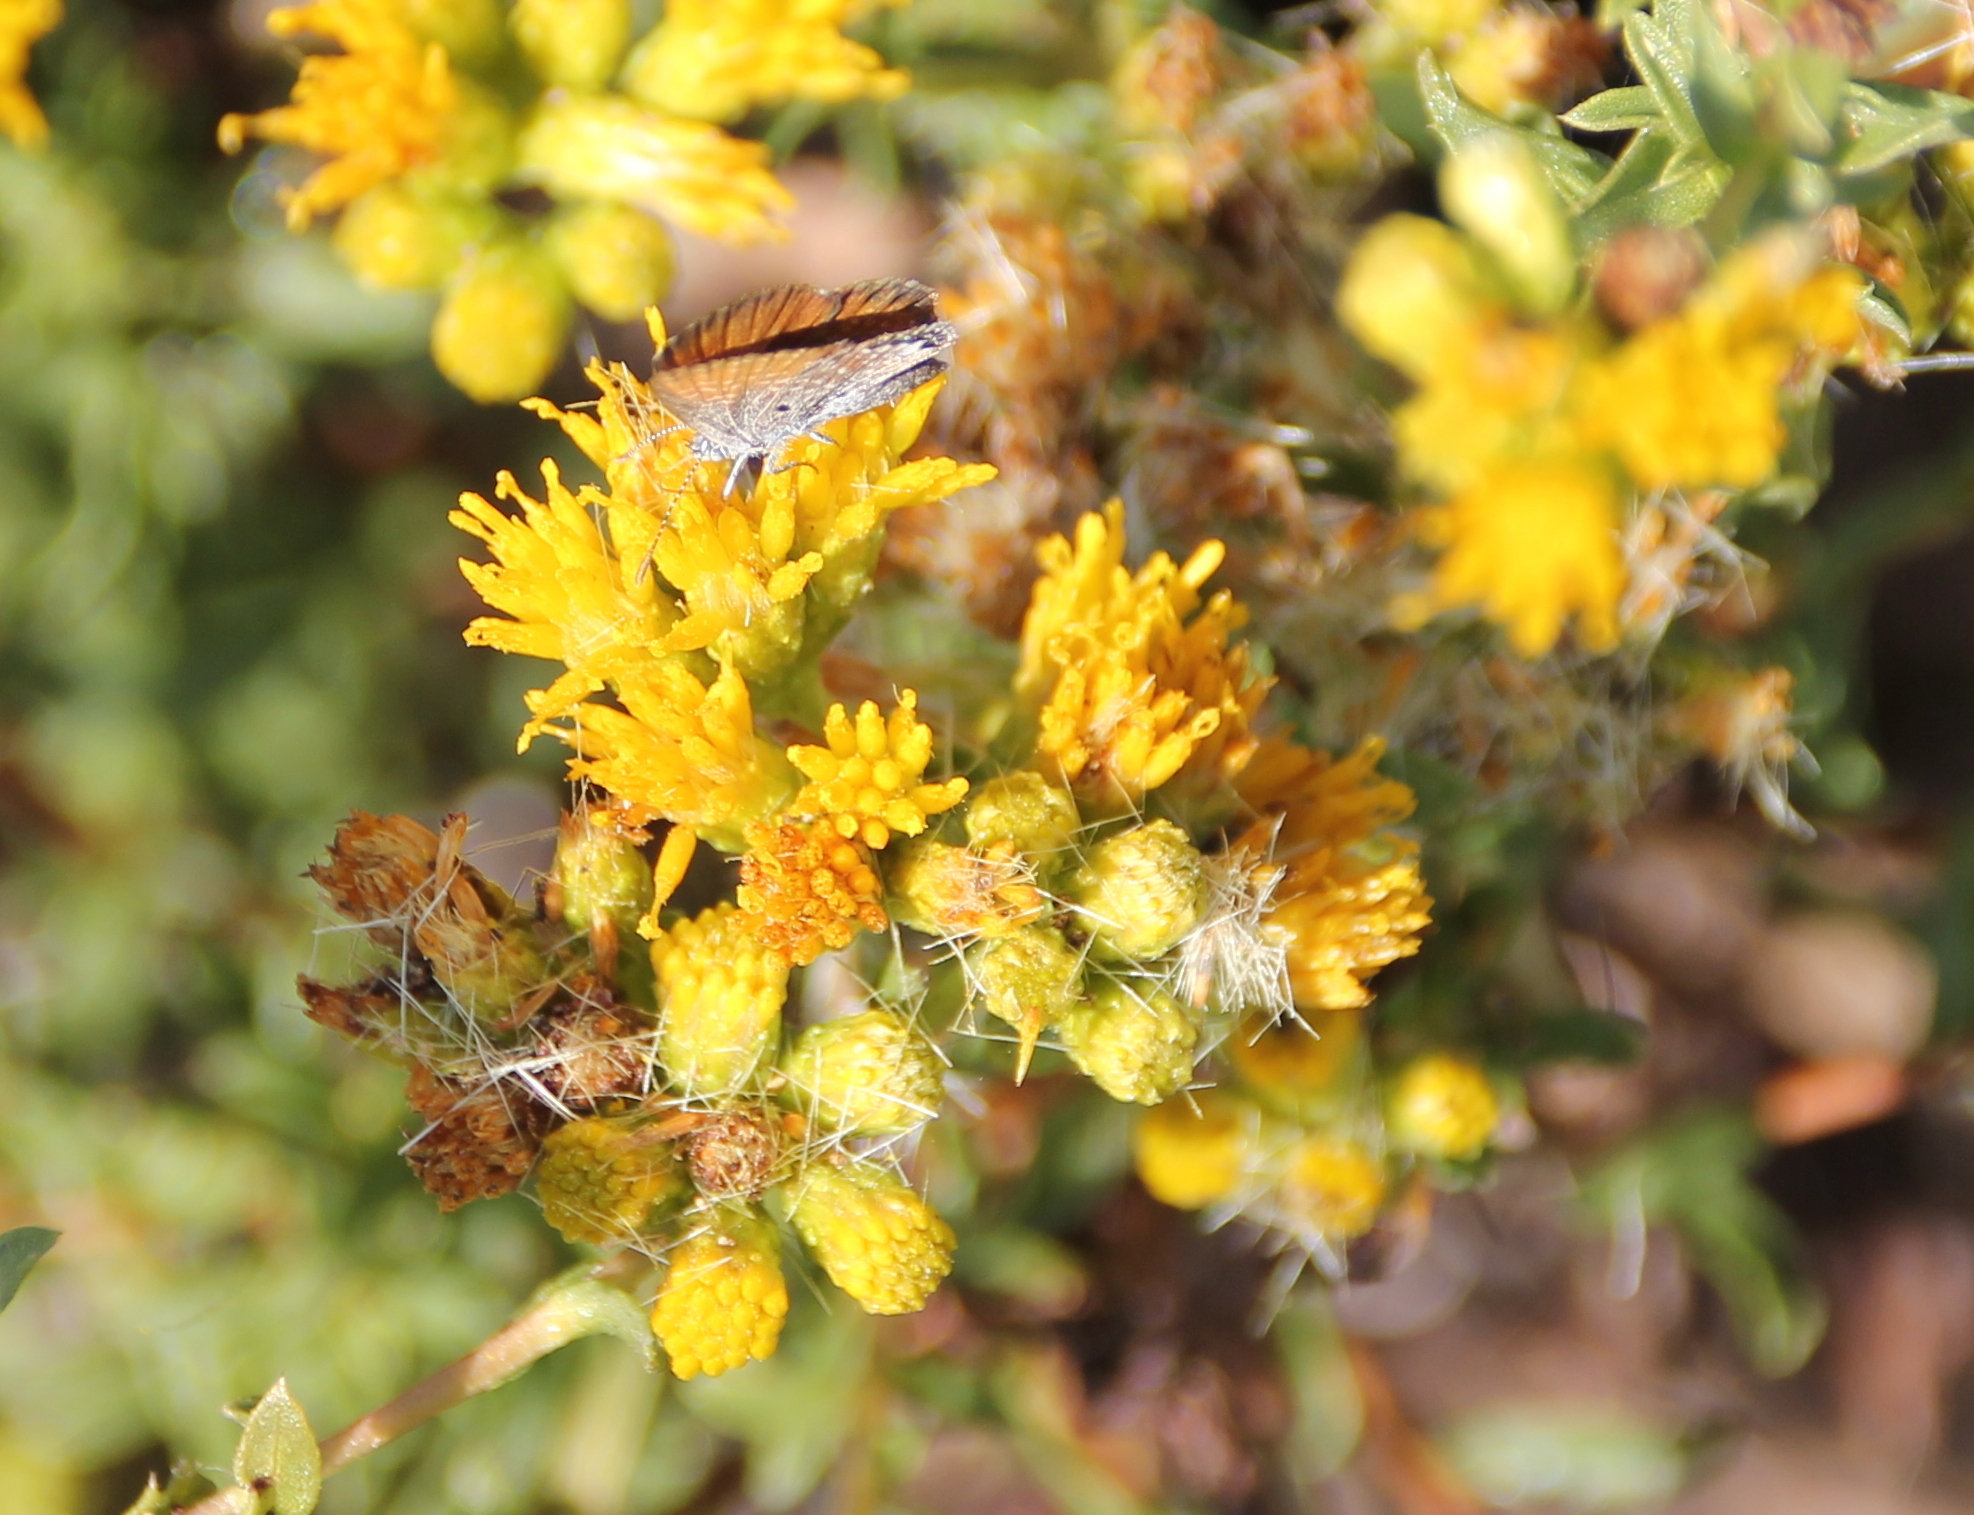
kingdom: Plantae
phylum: Tracheophyta
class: Magnoliopsida
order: Asterales
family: Asteraceae
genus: Isocoma
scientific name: Isocoma menziesii
